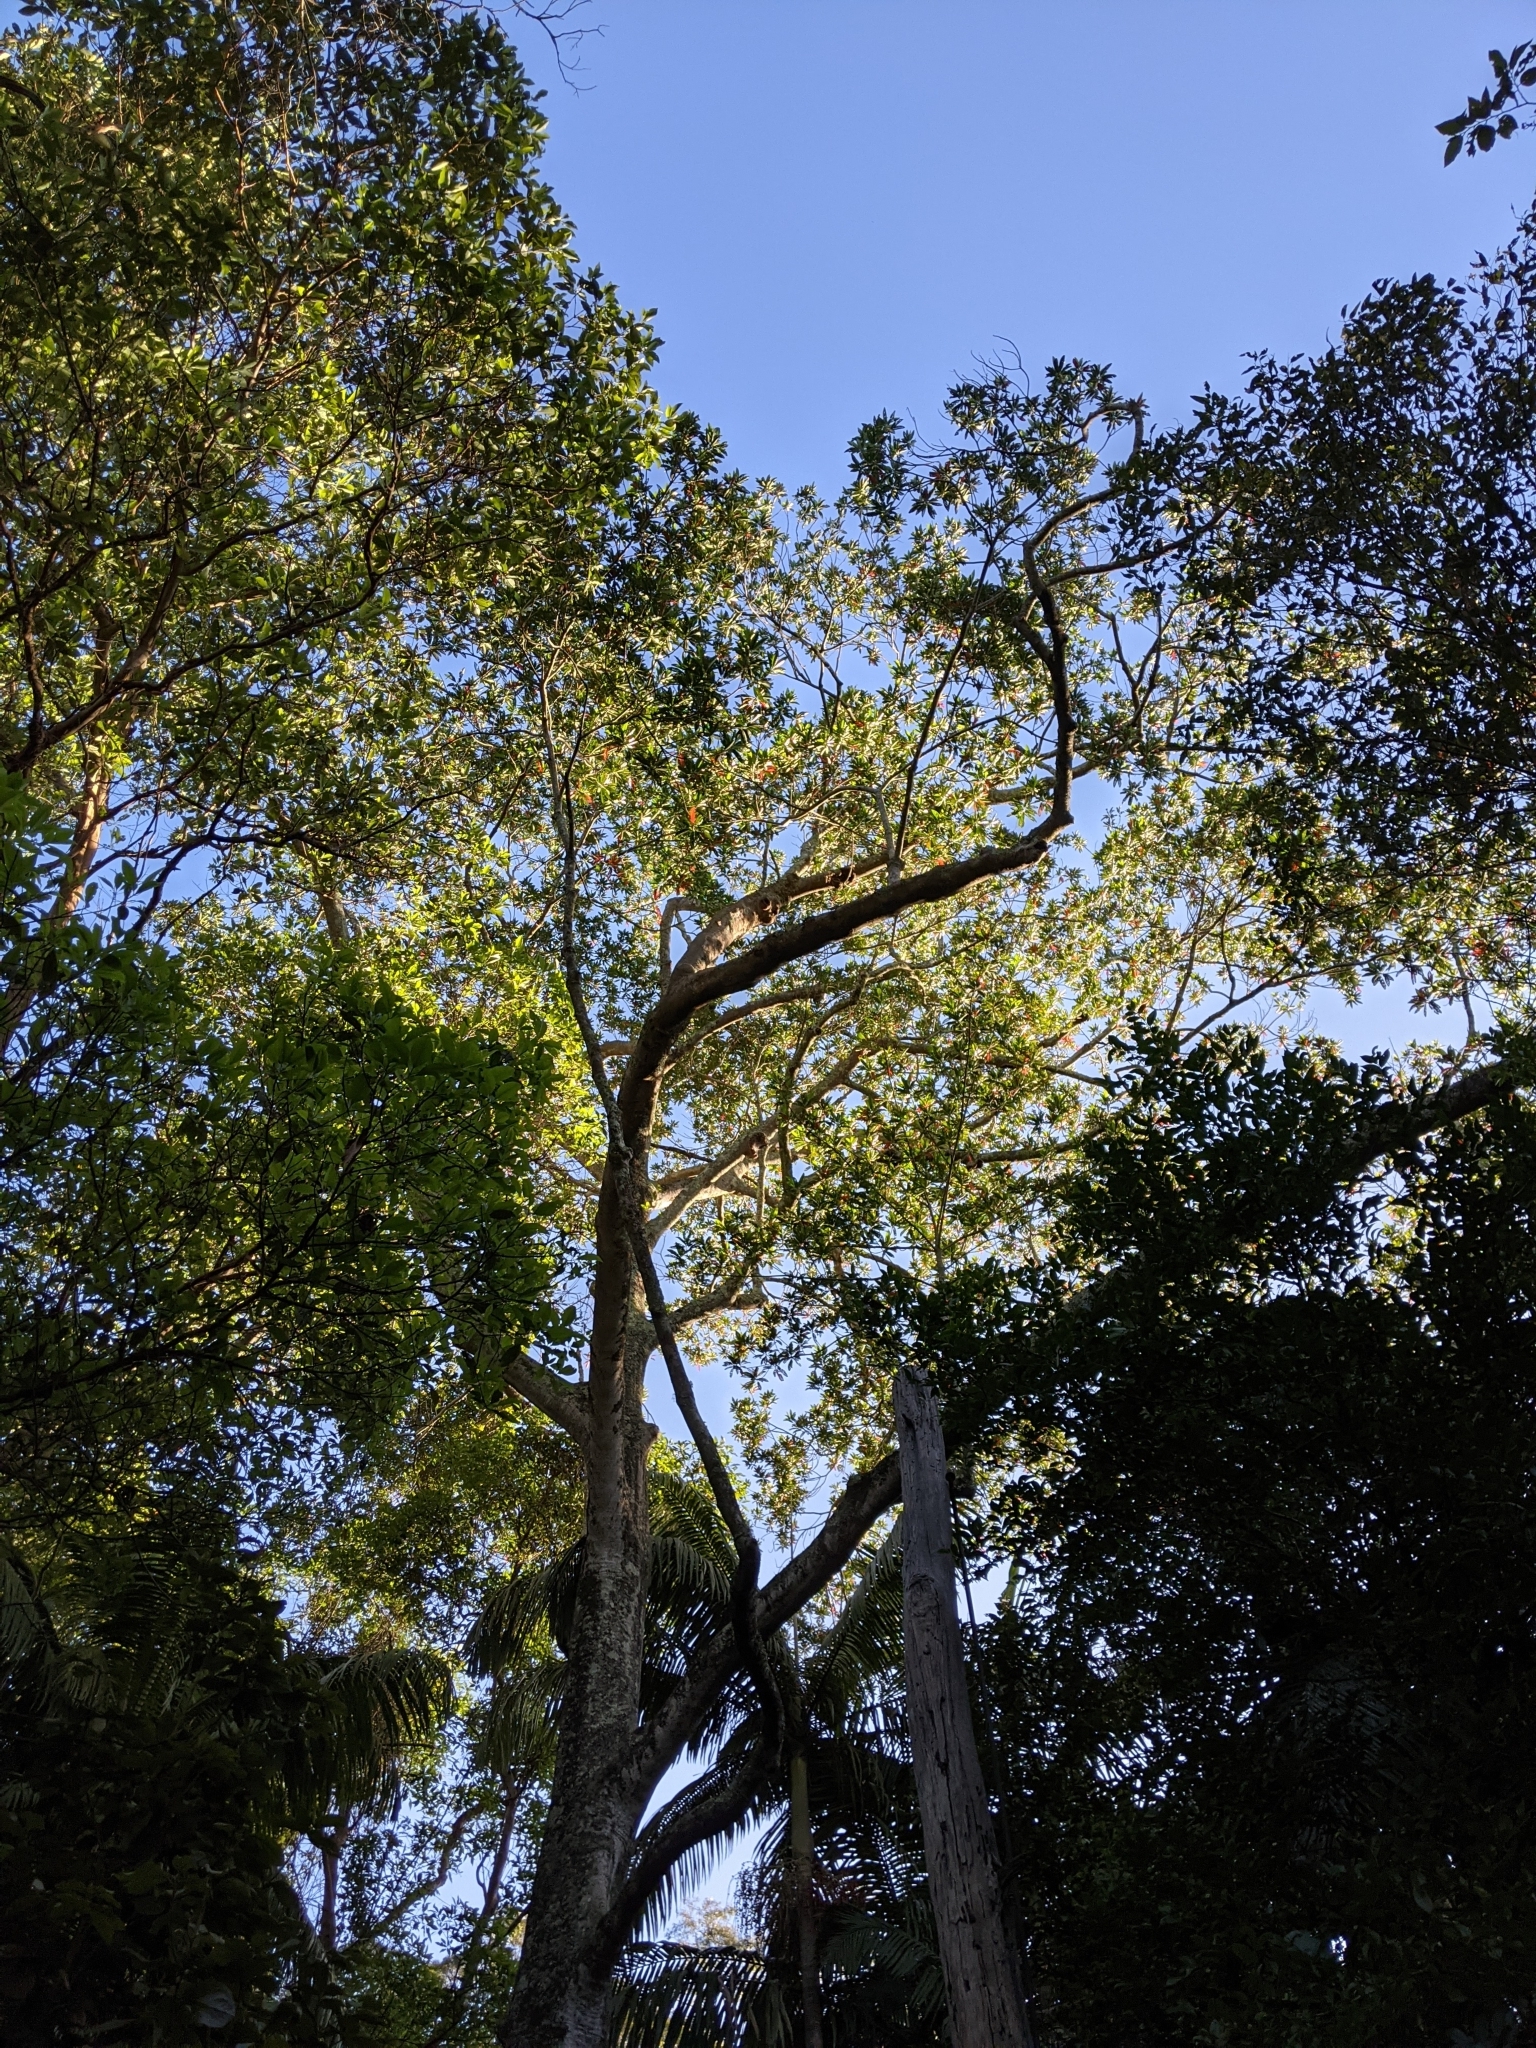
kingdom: Plantae
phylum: Tracheophyta
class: Magnoliopsida
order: Oxalidales
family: Elaeocarpaceae
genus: Elaeocarpus
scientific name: Elaeocarpus angustifolius
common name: Blue marble tree
